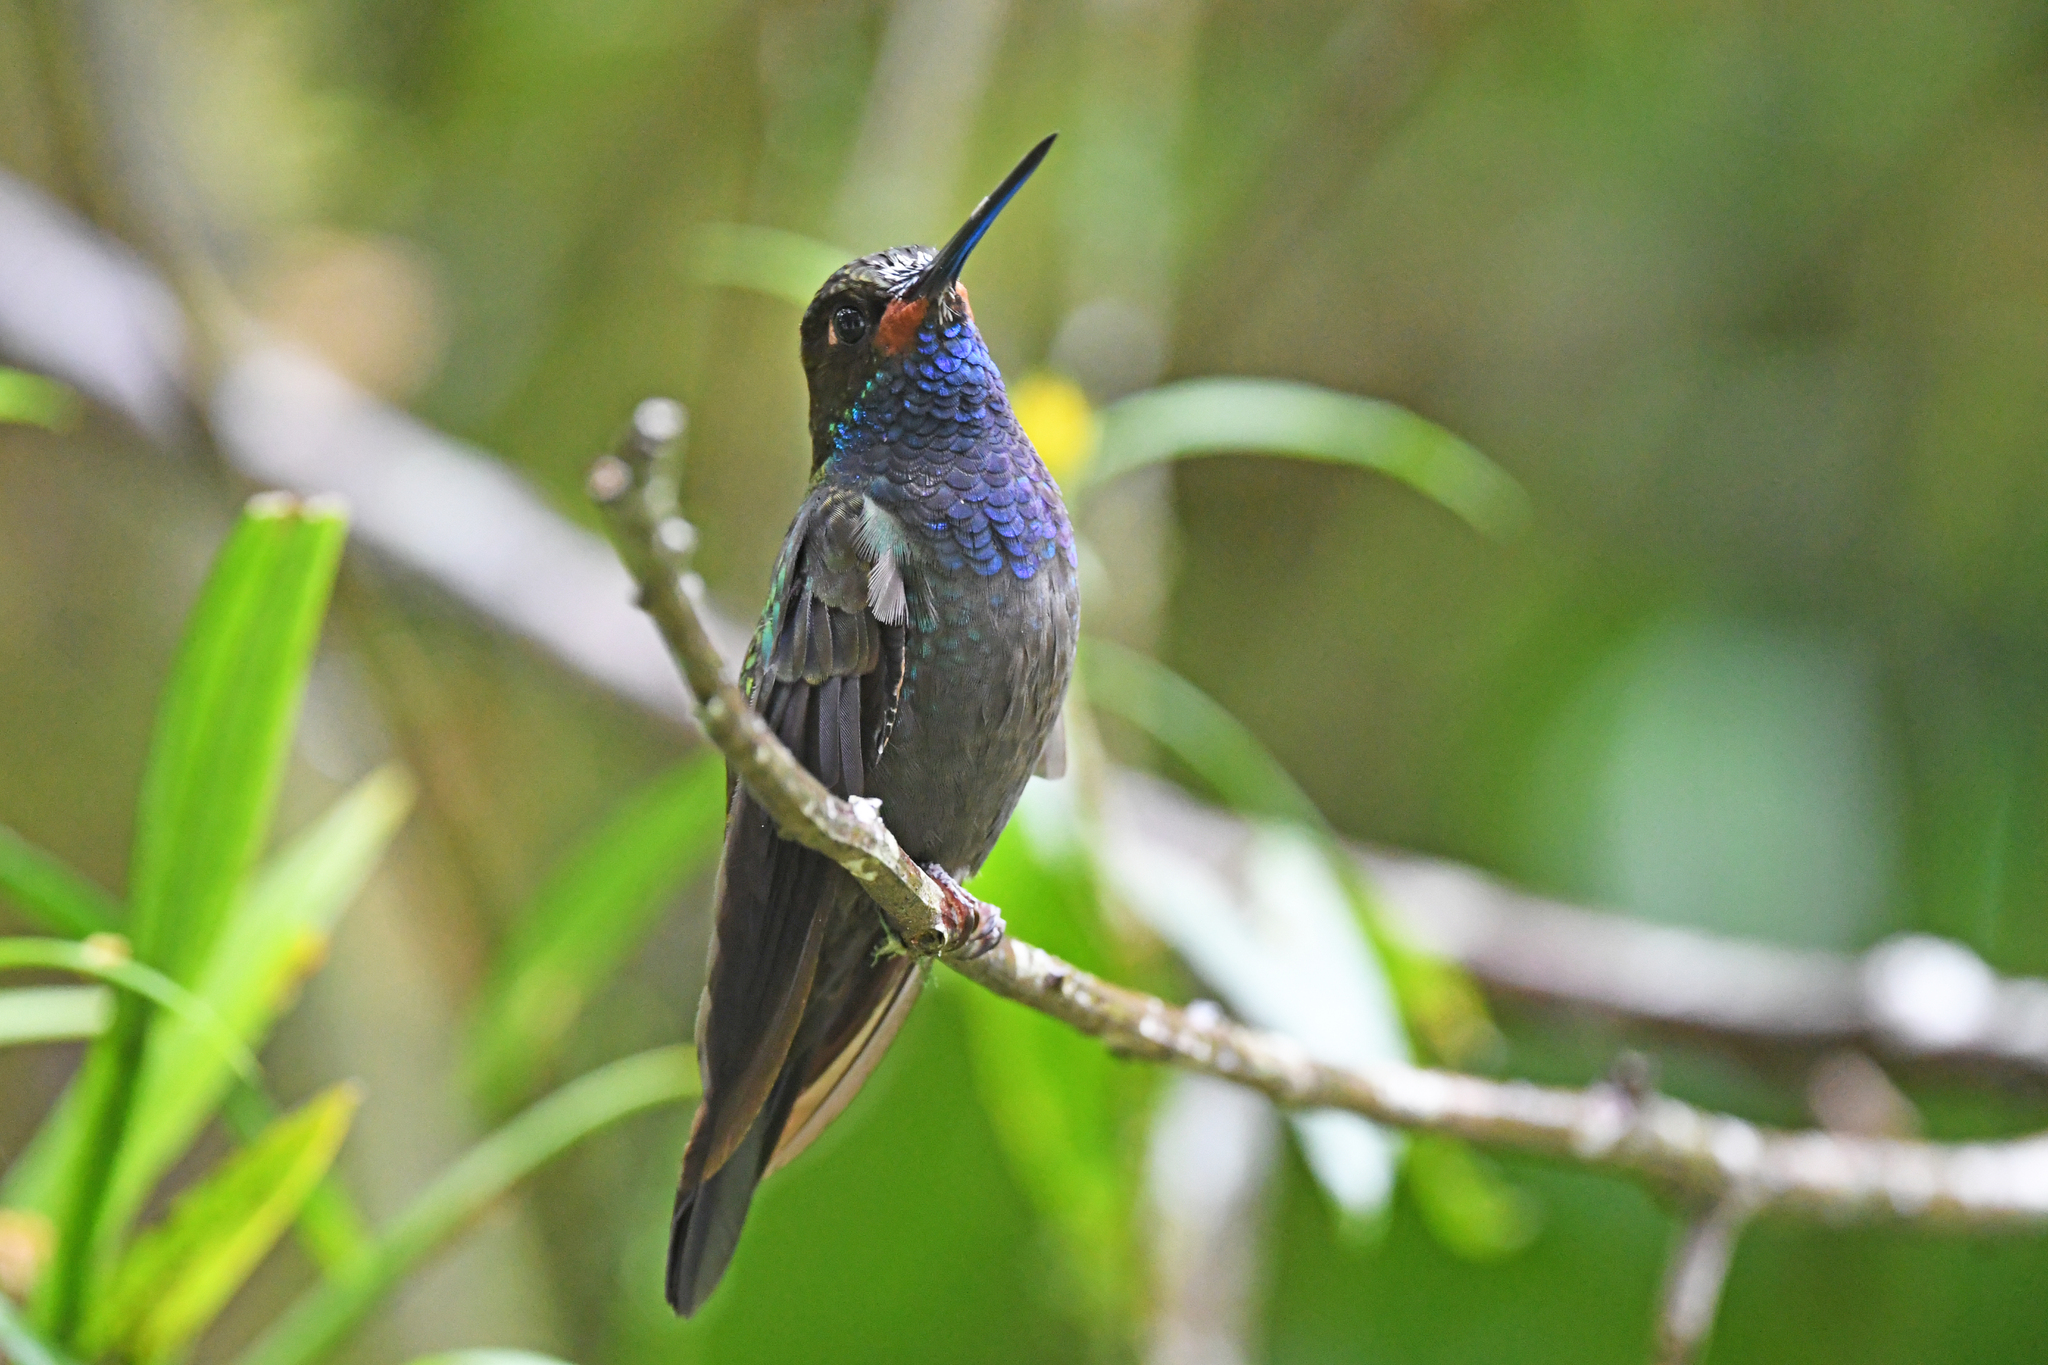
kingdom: Animalia
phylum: Chordata
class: Aves
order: Apodiformes
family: Trochilidae
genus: Urochroa
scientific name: Urochroa bougueri
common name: White-tailed hillstar
